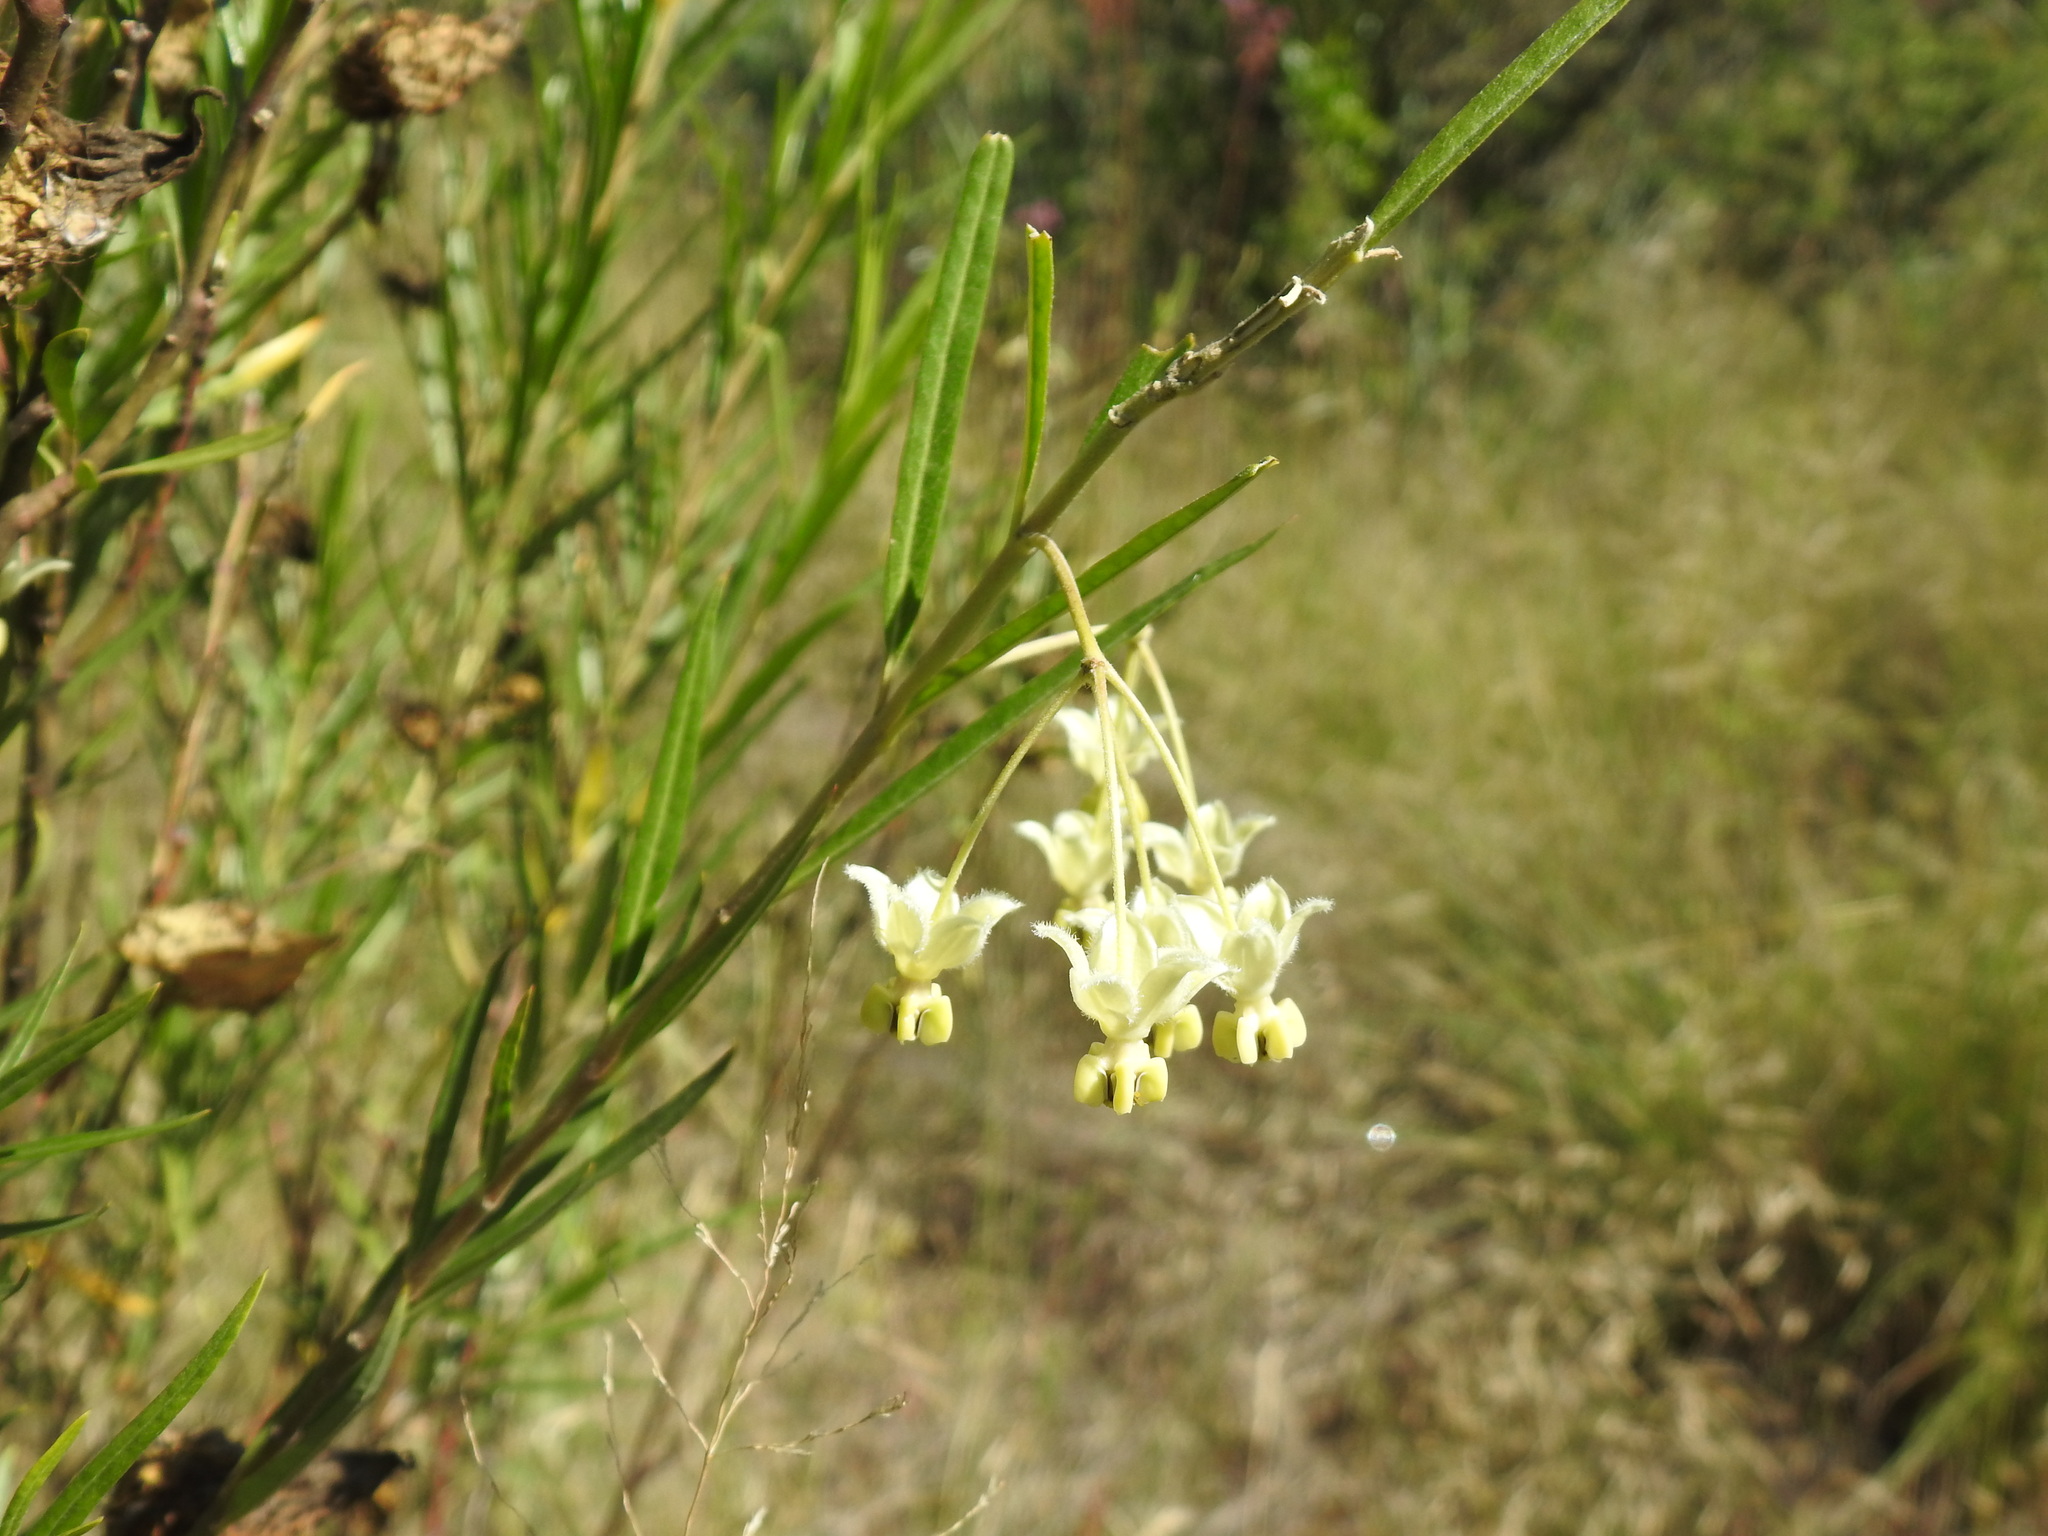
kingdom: Plantae
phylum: Tracheophyta
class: Magnoliopsida
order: Gentianales
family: Apocynaceae
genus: Gomphocarpus
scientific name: Gomphocarpus fruticosus
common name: Milkweed
